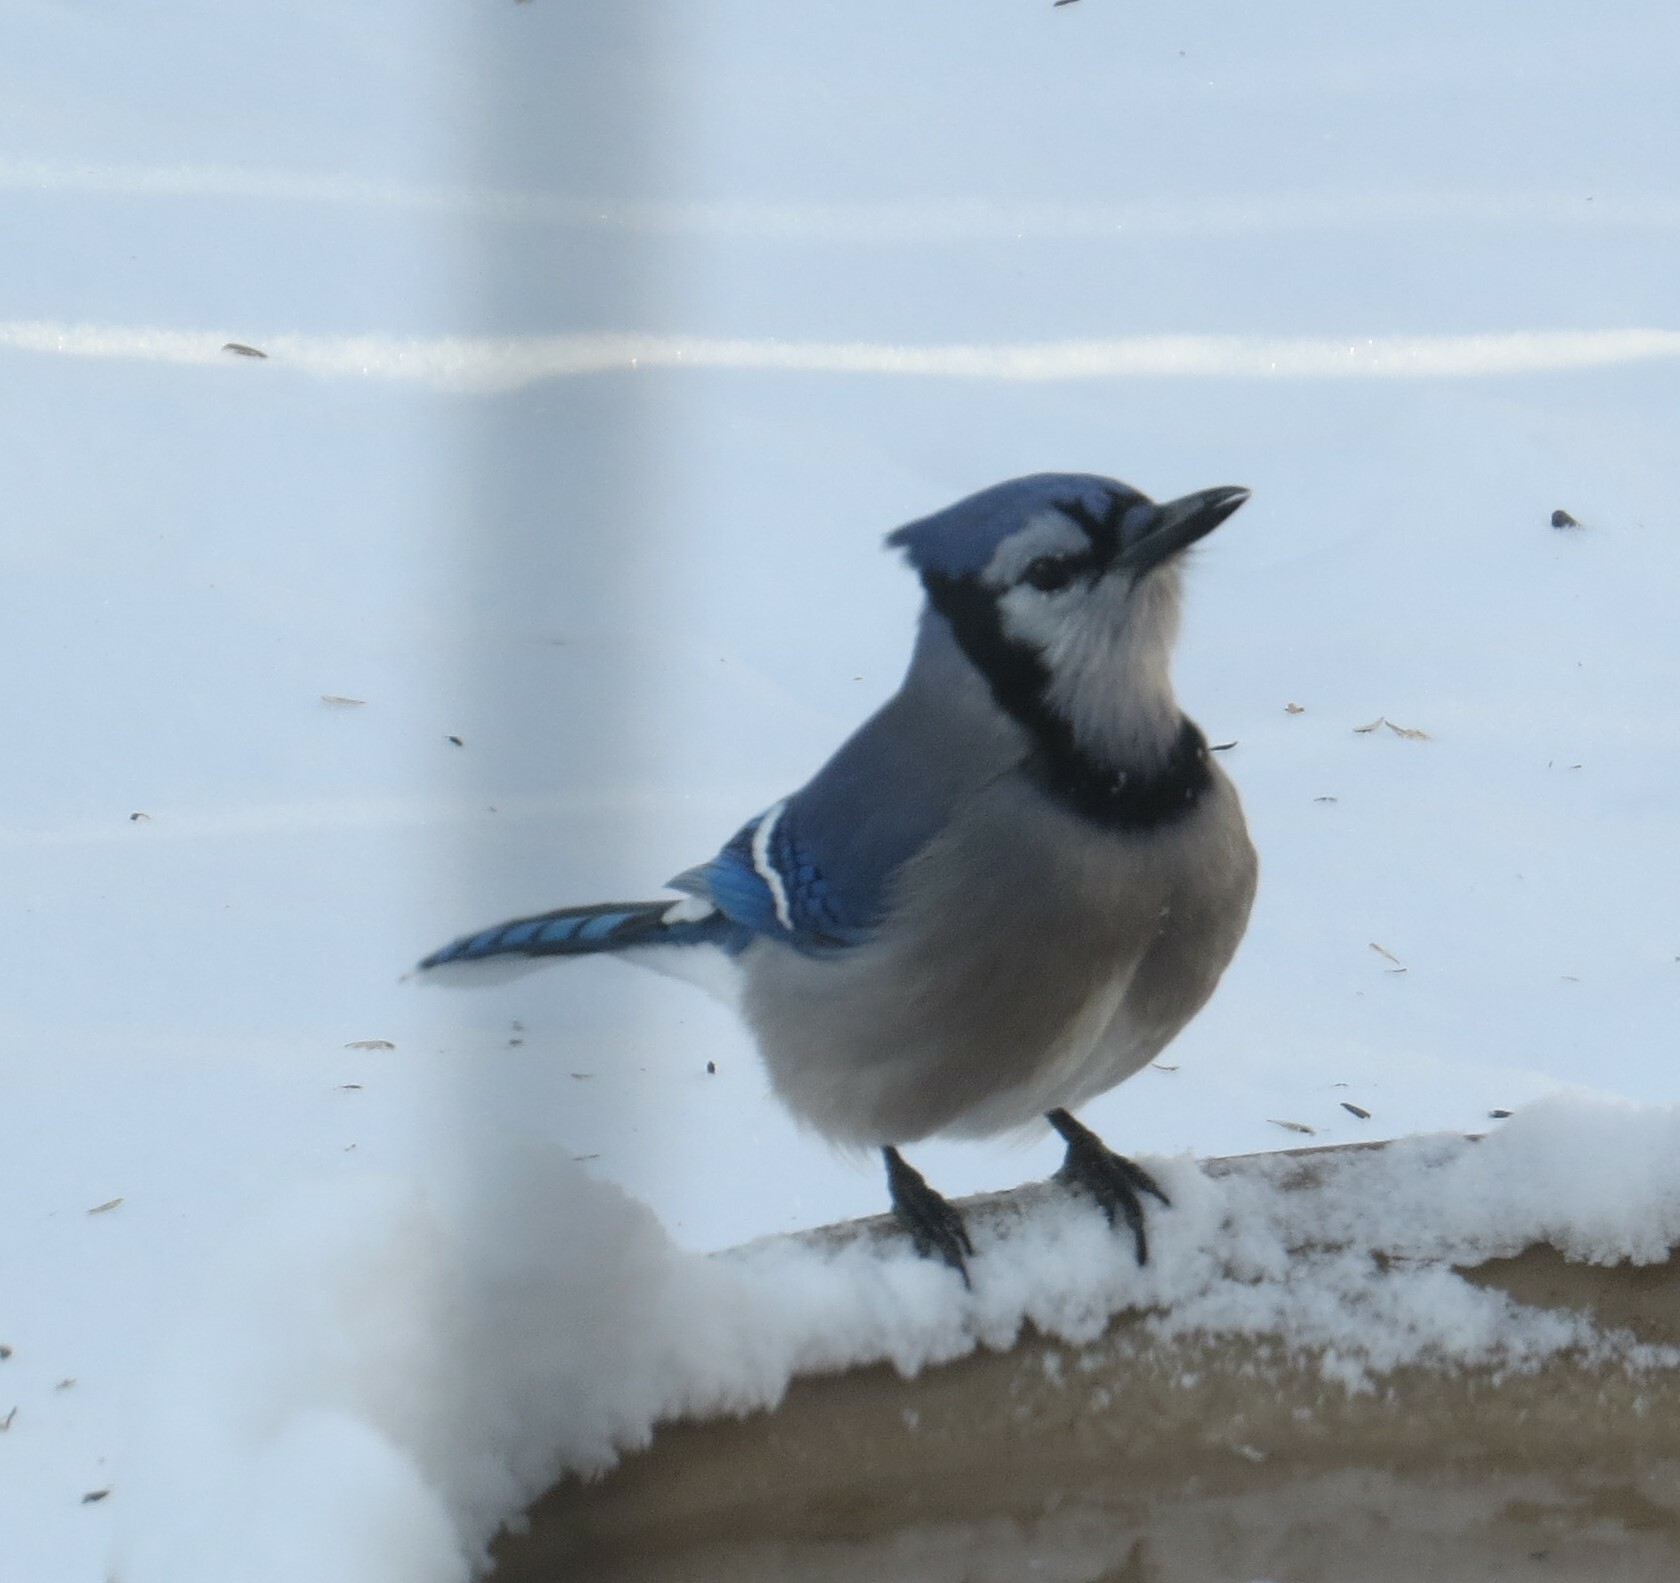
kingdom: Animalia
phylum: Chordata
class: Aves
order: Passeriformes
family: Corvidae
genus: Cyanocitta
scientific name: Cyanocitta cristata
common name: Blue jay
